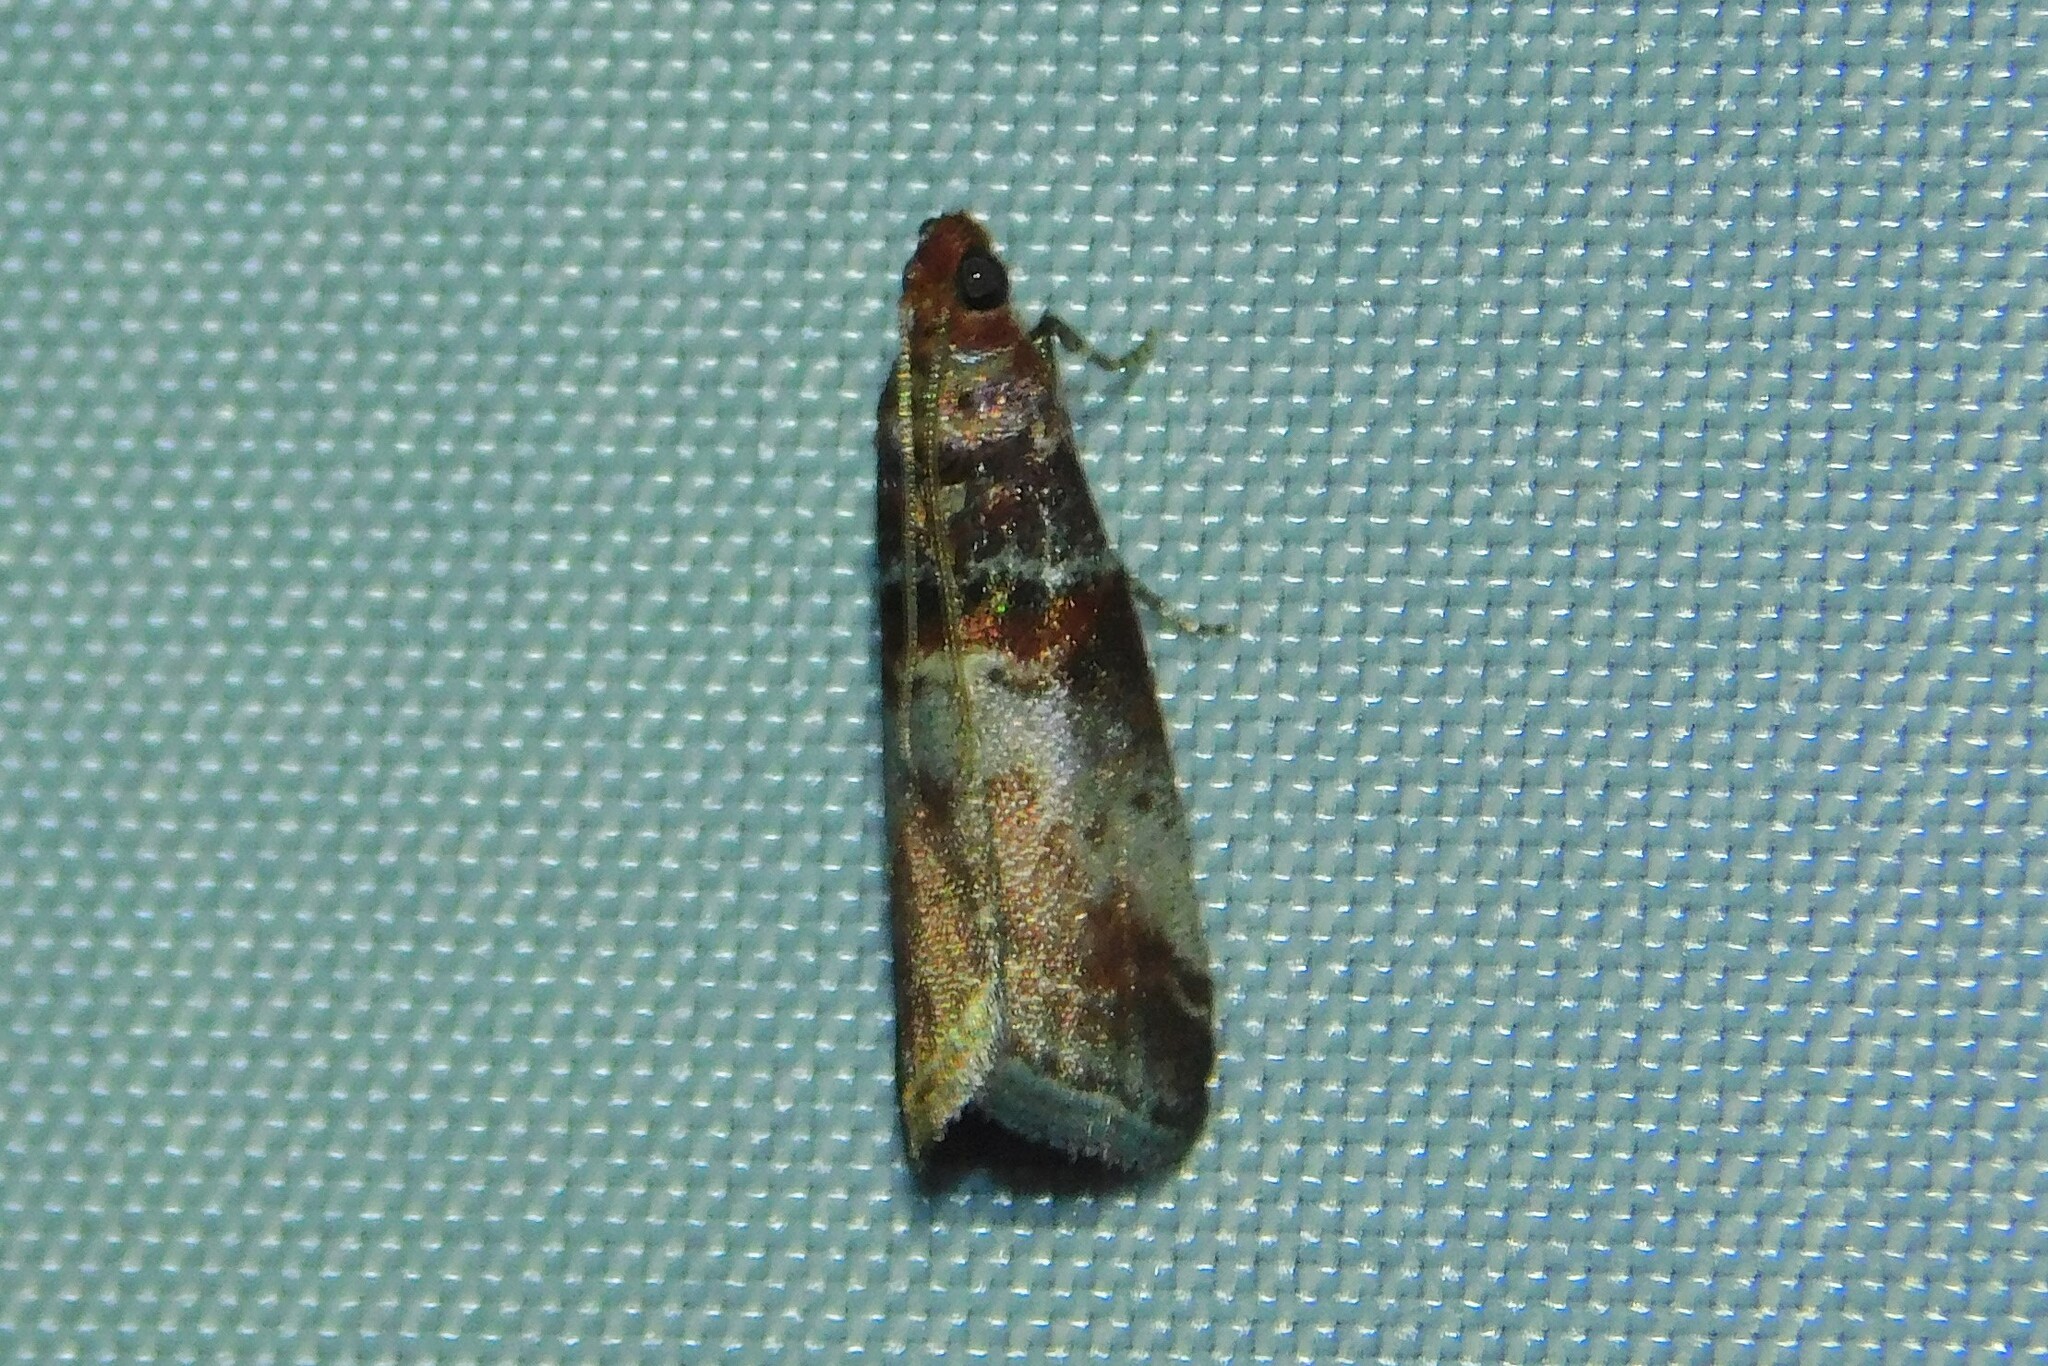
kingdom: Animalia
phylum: Arthropoda
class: Insecta
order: Lepidoptera
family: Pyralidae
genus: Acrobasis
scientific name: Acrobasis advenella
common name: Grey knot-horn
